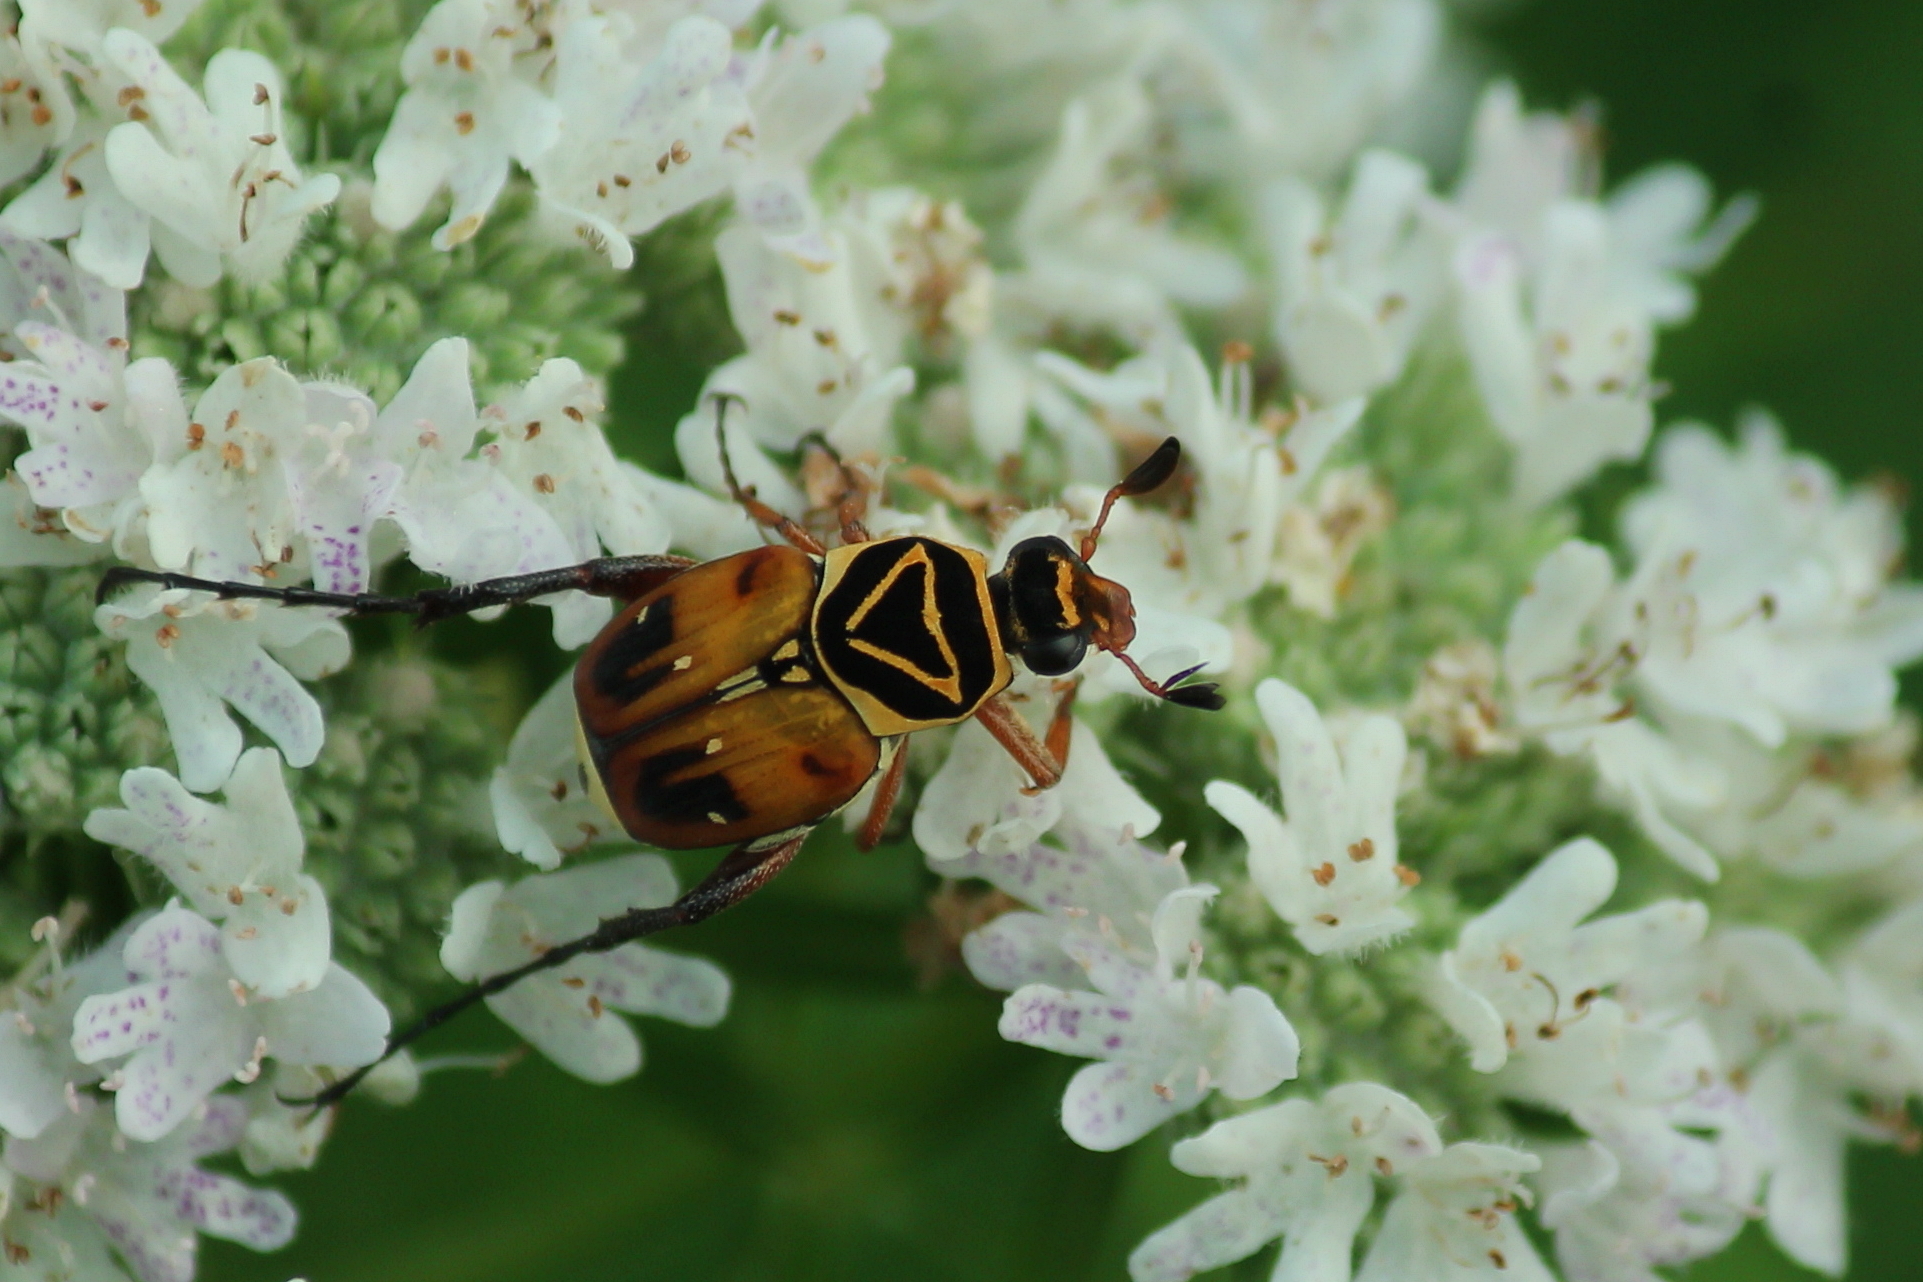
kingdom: Animalia
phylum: Arthropoda
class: Insecta
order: Coleoptera
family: Scarabaeidae
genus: Trigonopeltastes
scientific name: Trigonopeltastes delta
